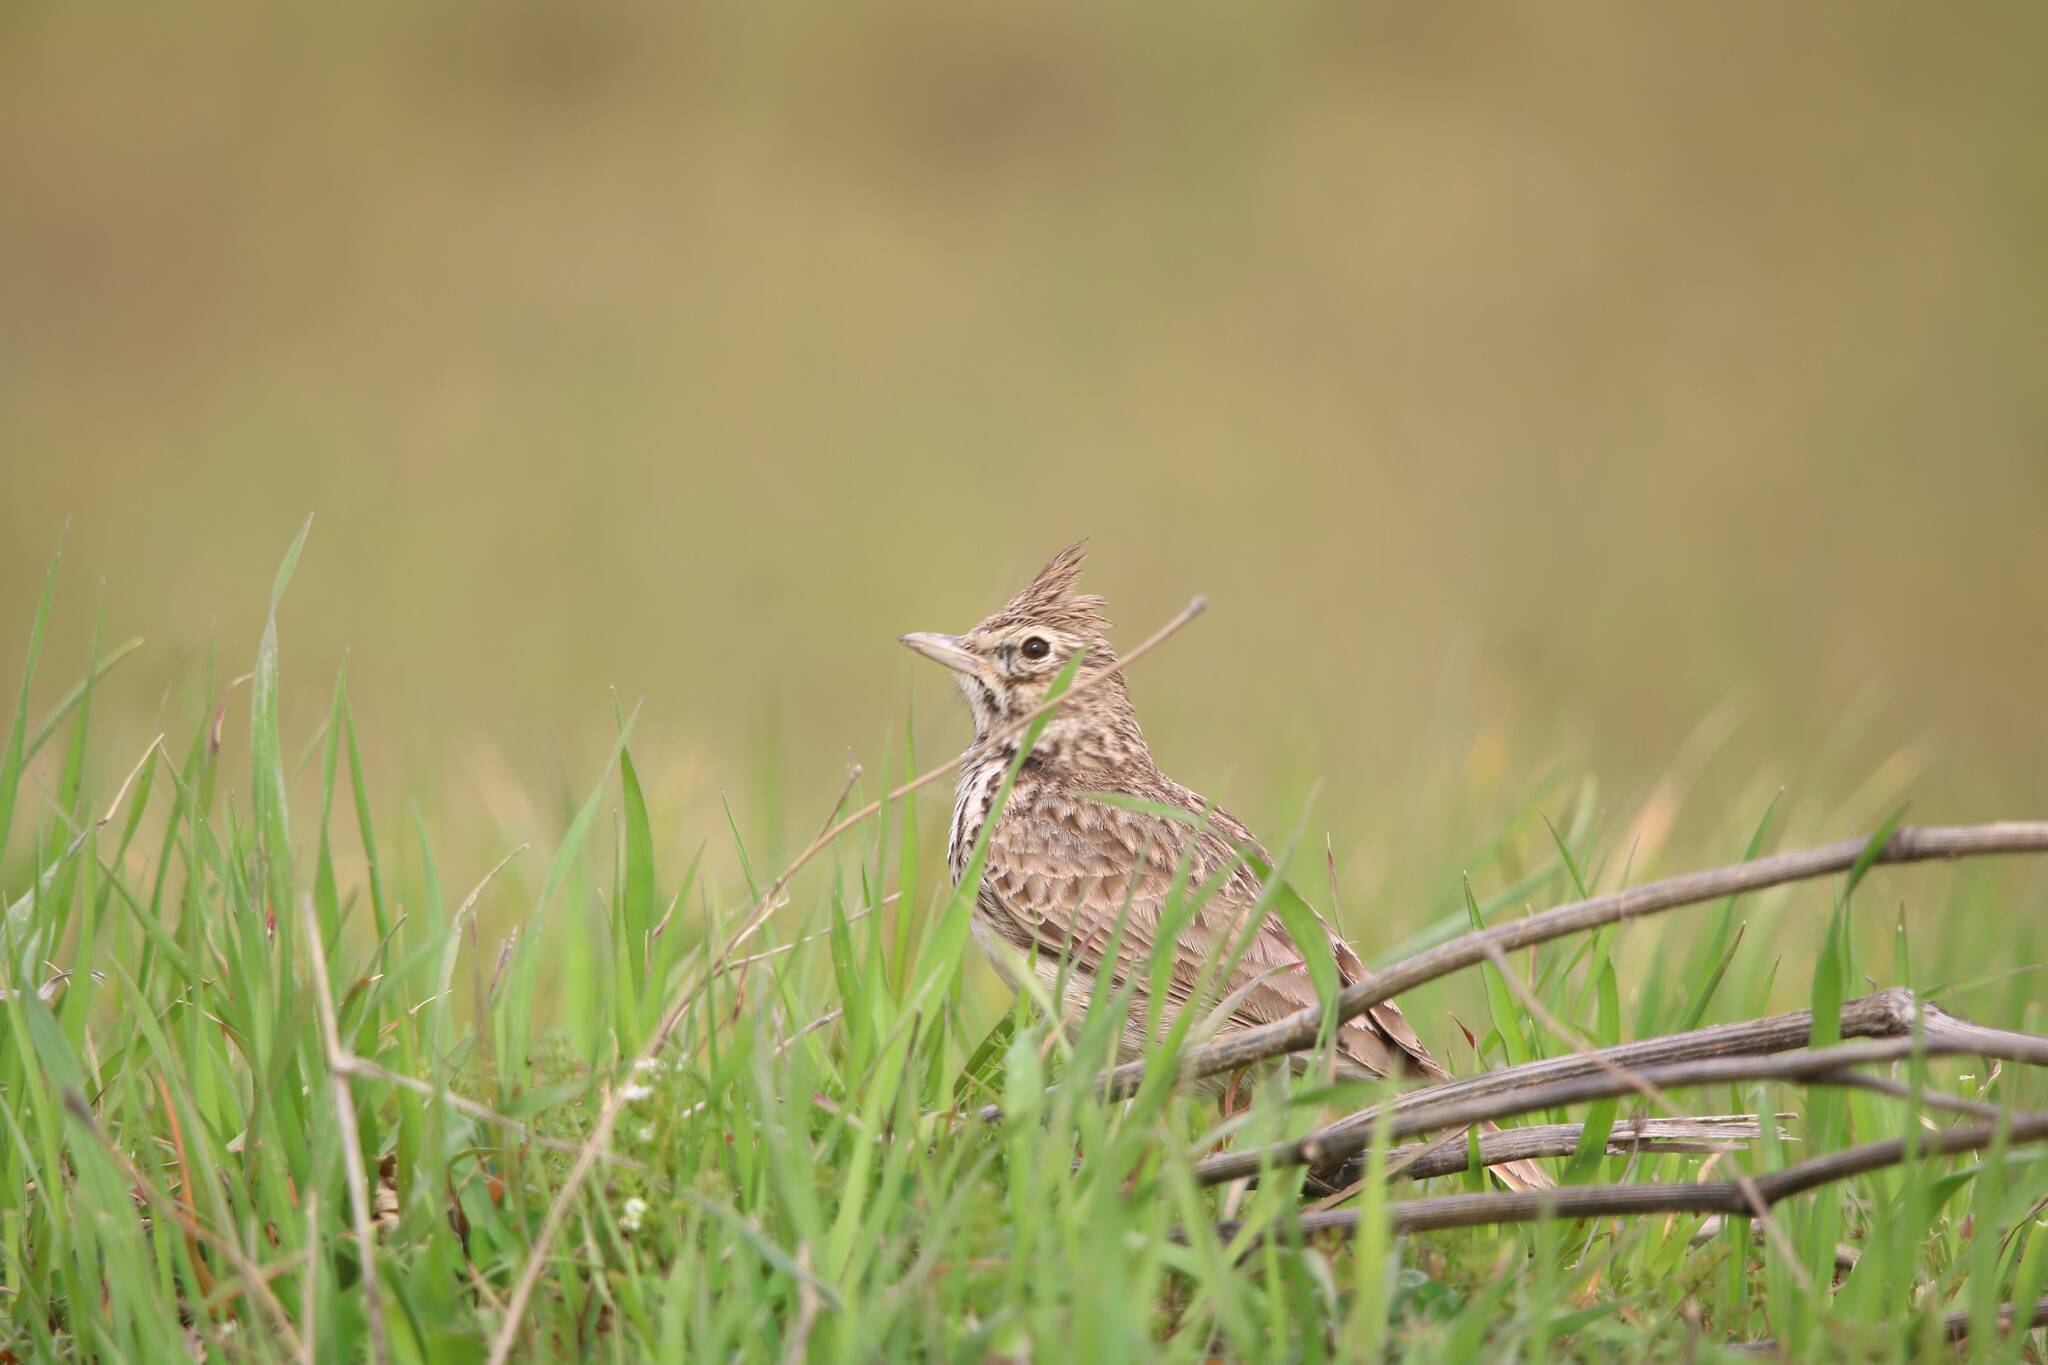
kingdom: Animalia
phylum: Chordata
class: Aves
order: Passeriformes
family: Alaudidae
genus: Galerida
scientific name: Galerida theklae
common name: Thekla lark
